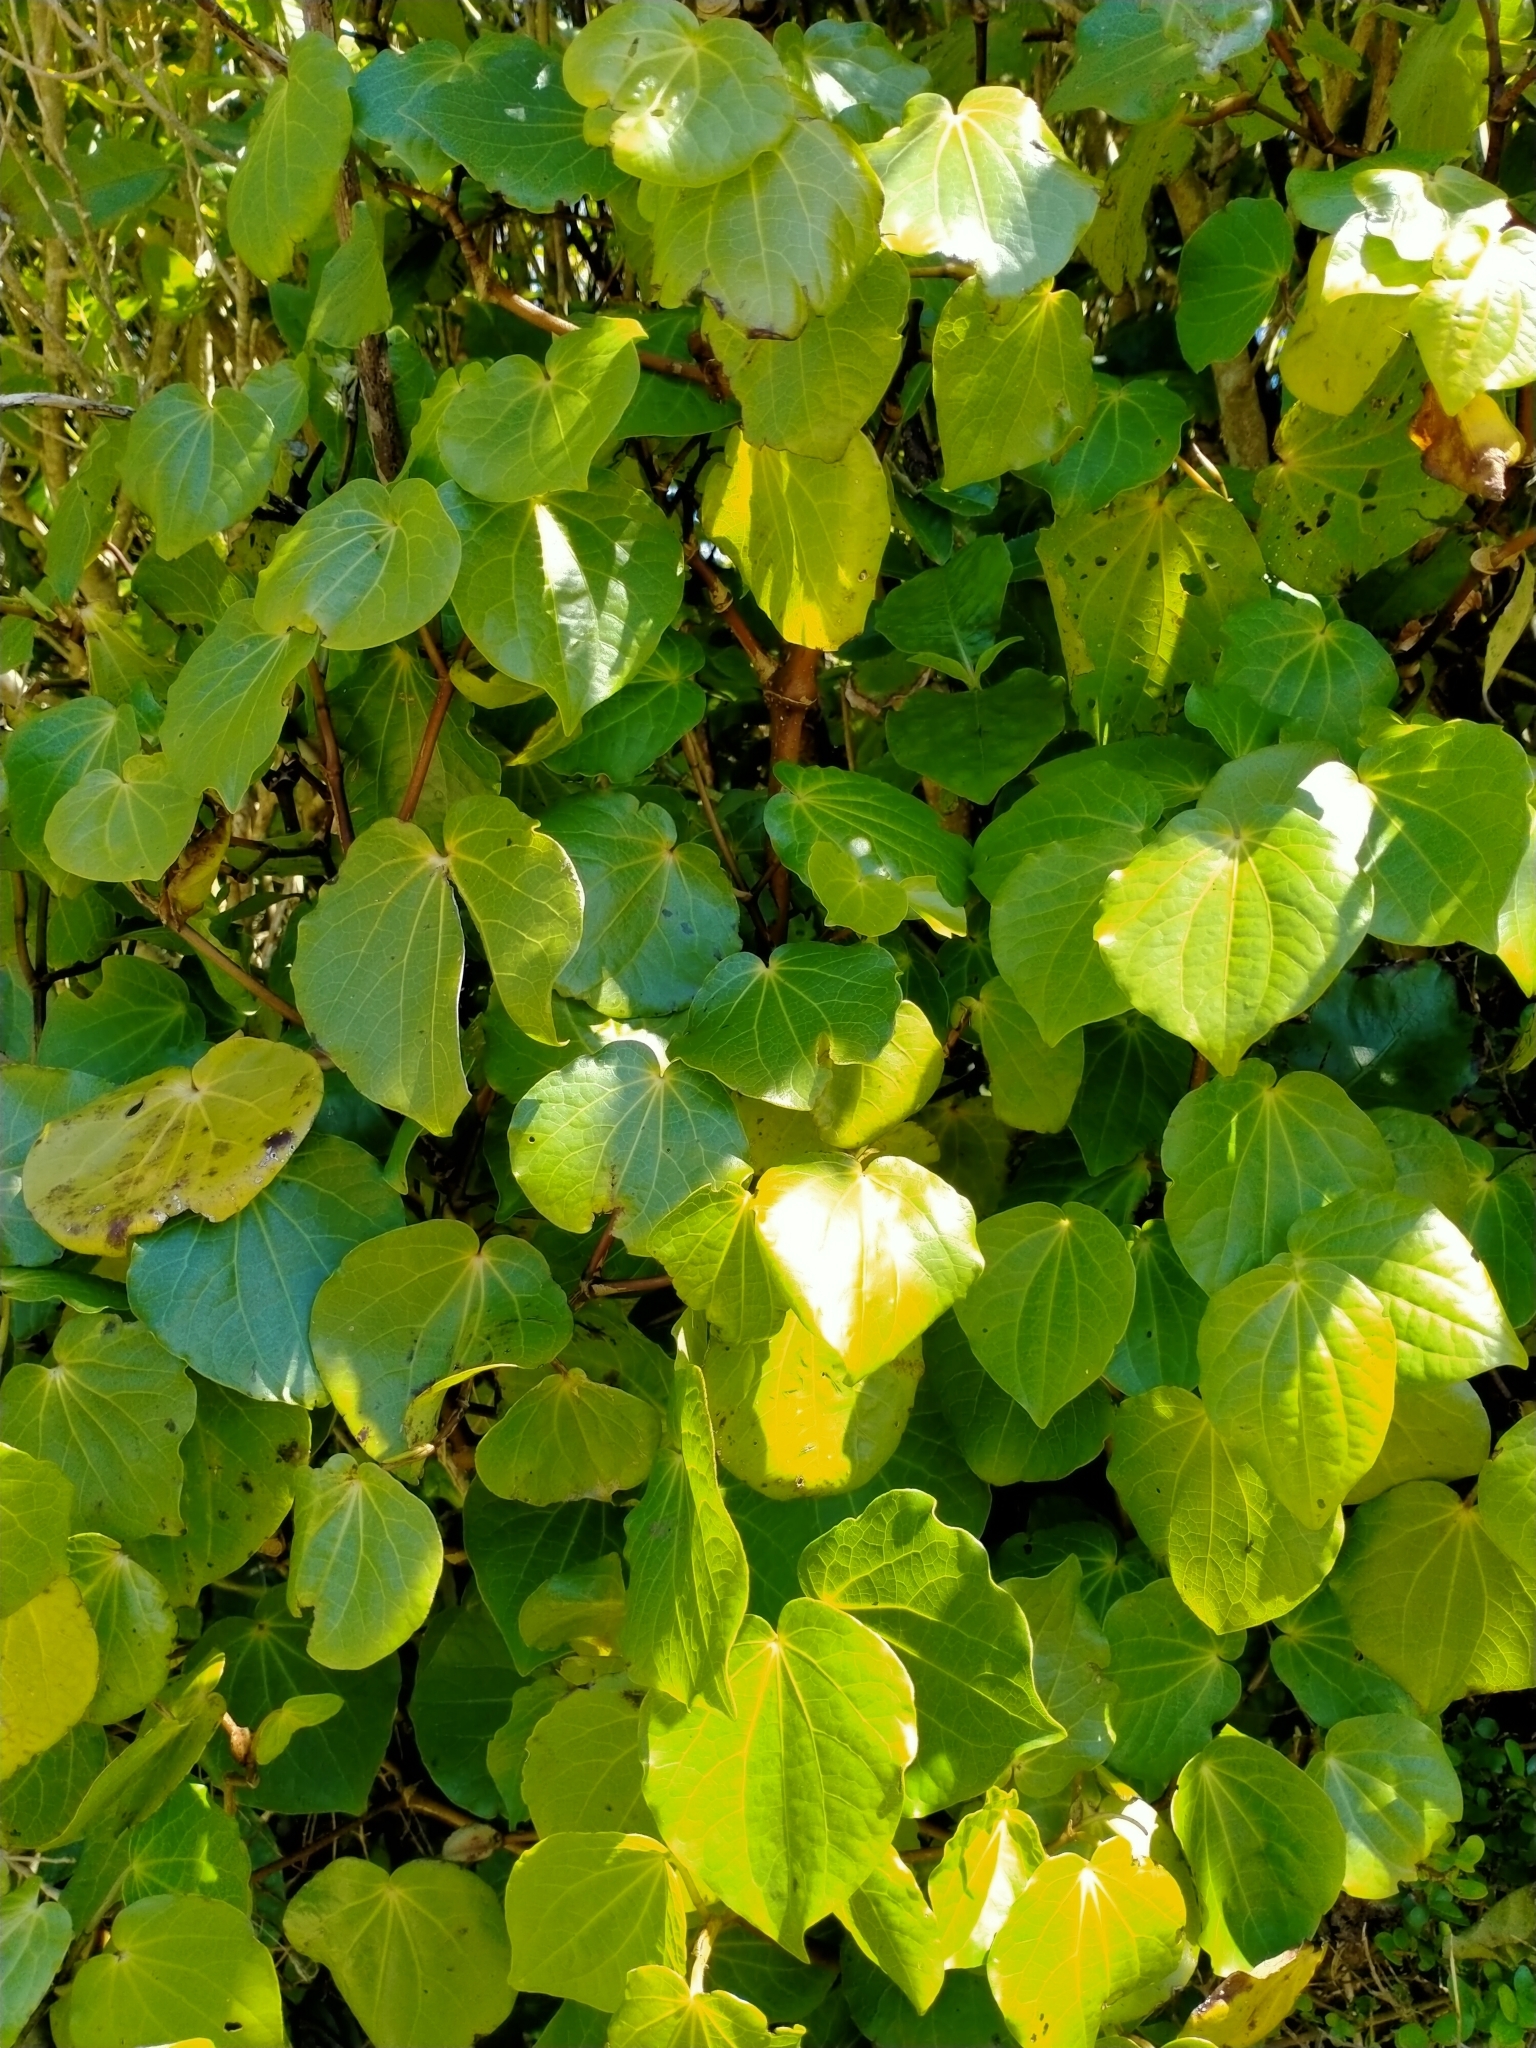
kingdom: Plantae
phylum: Tracheophyta
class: Magnoliopsida
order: Piperales
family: Piperaceae
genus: Macropiper
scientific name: Macropiper excelsum
